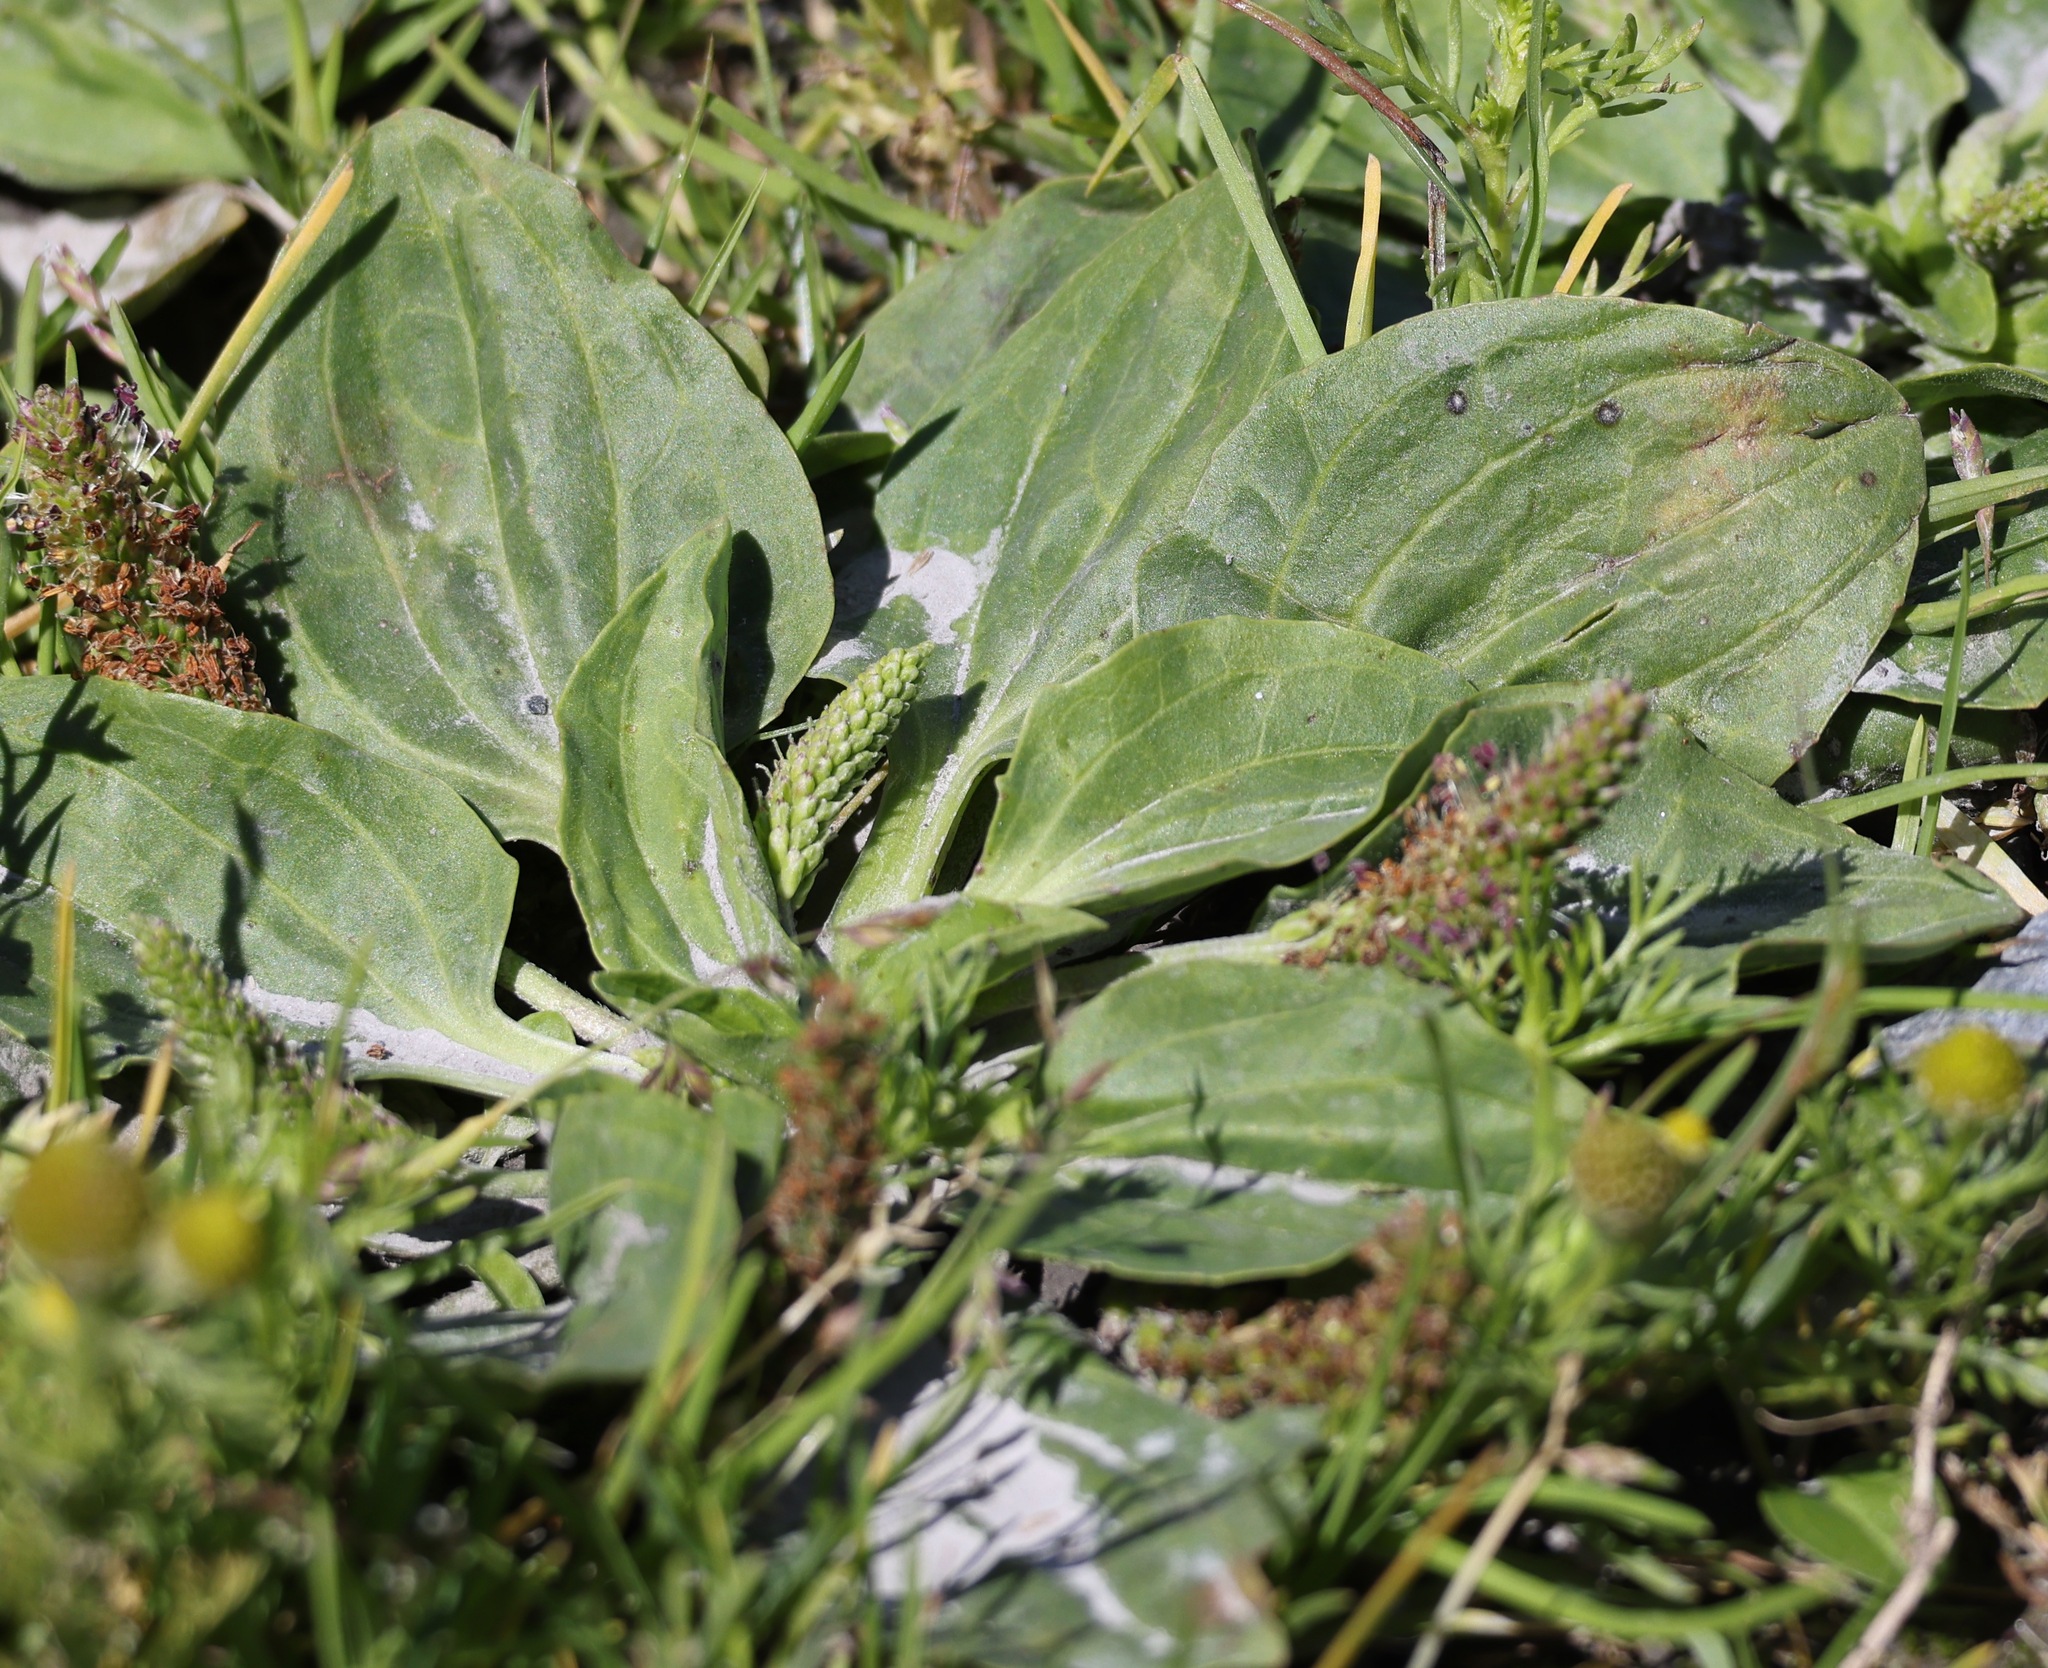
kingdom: Plantae
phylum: Tracheophyta
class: Magnoliopsida
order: Lamiales
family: Plantaginaceae
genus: Plantago
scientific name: Plantago major
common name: Common plantain
